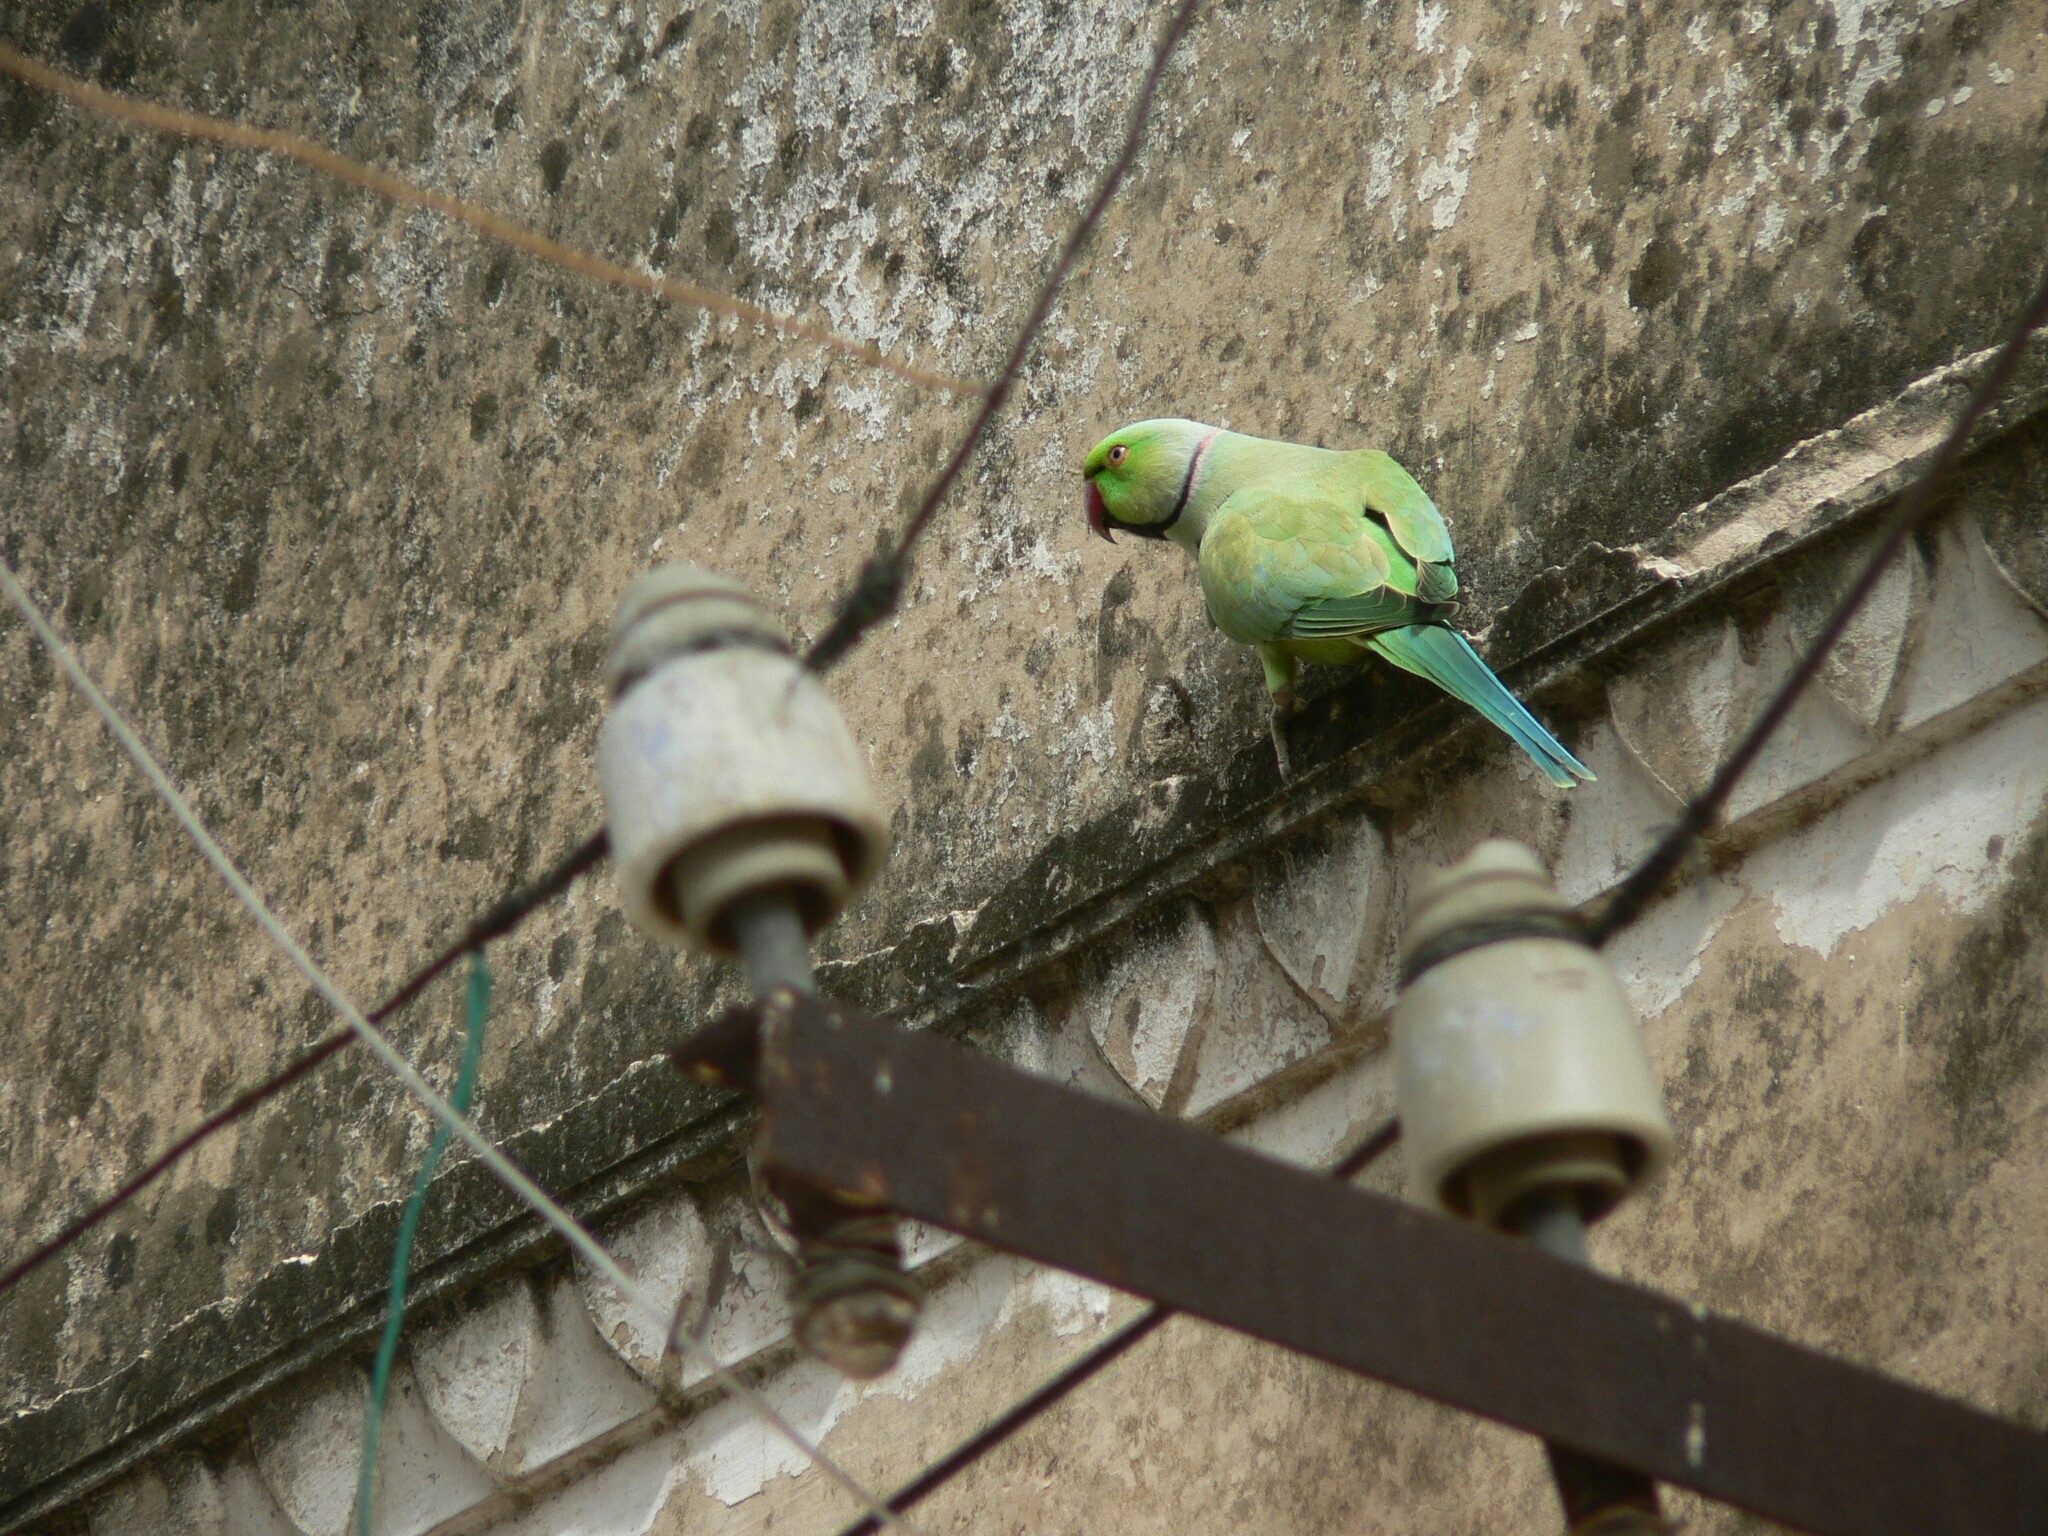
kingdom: Animalia
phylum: Chordata
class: Aves
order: Psittaciformes
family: Psittacidae
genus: Psittacula
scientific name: Psittacula krameri
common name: Rose-ringed parakeet
